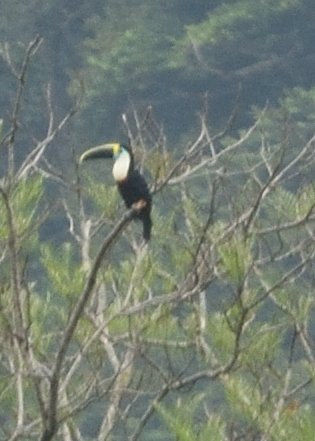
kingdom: Animalia
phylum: Chordata
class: Aves
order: Piciformes
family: Ramphastidae
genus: Ramphastos
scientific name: Ramphastos tucanus
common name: White-throated toucan
